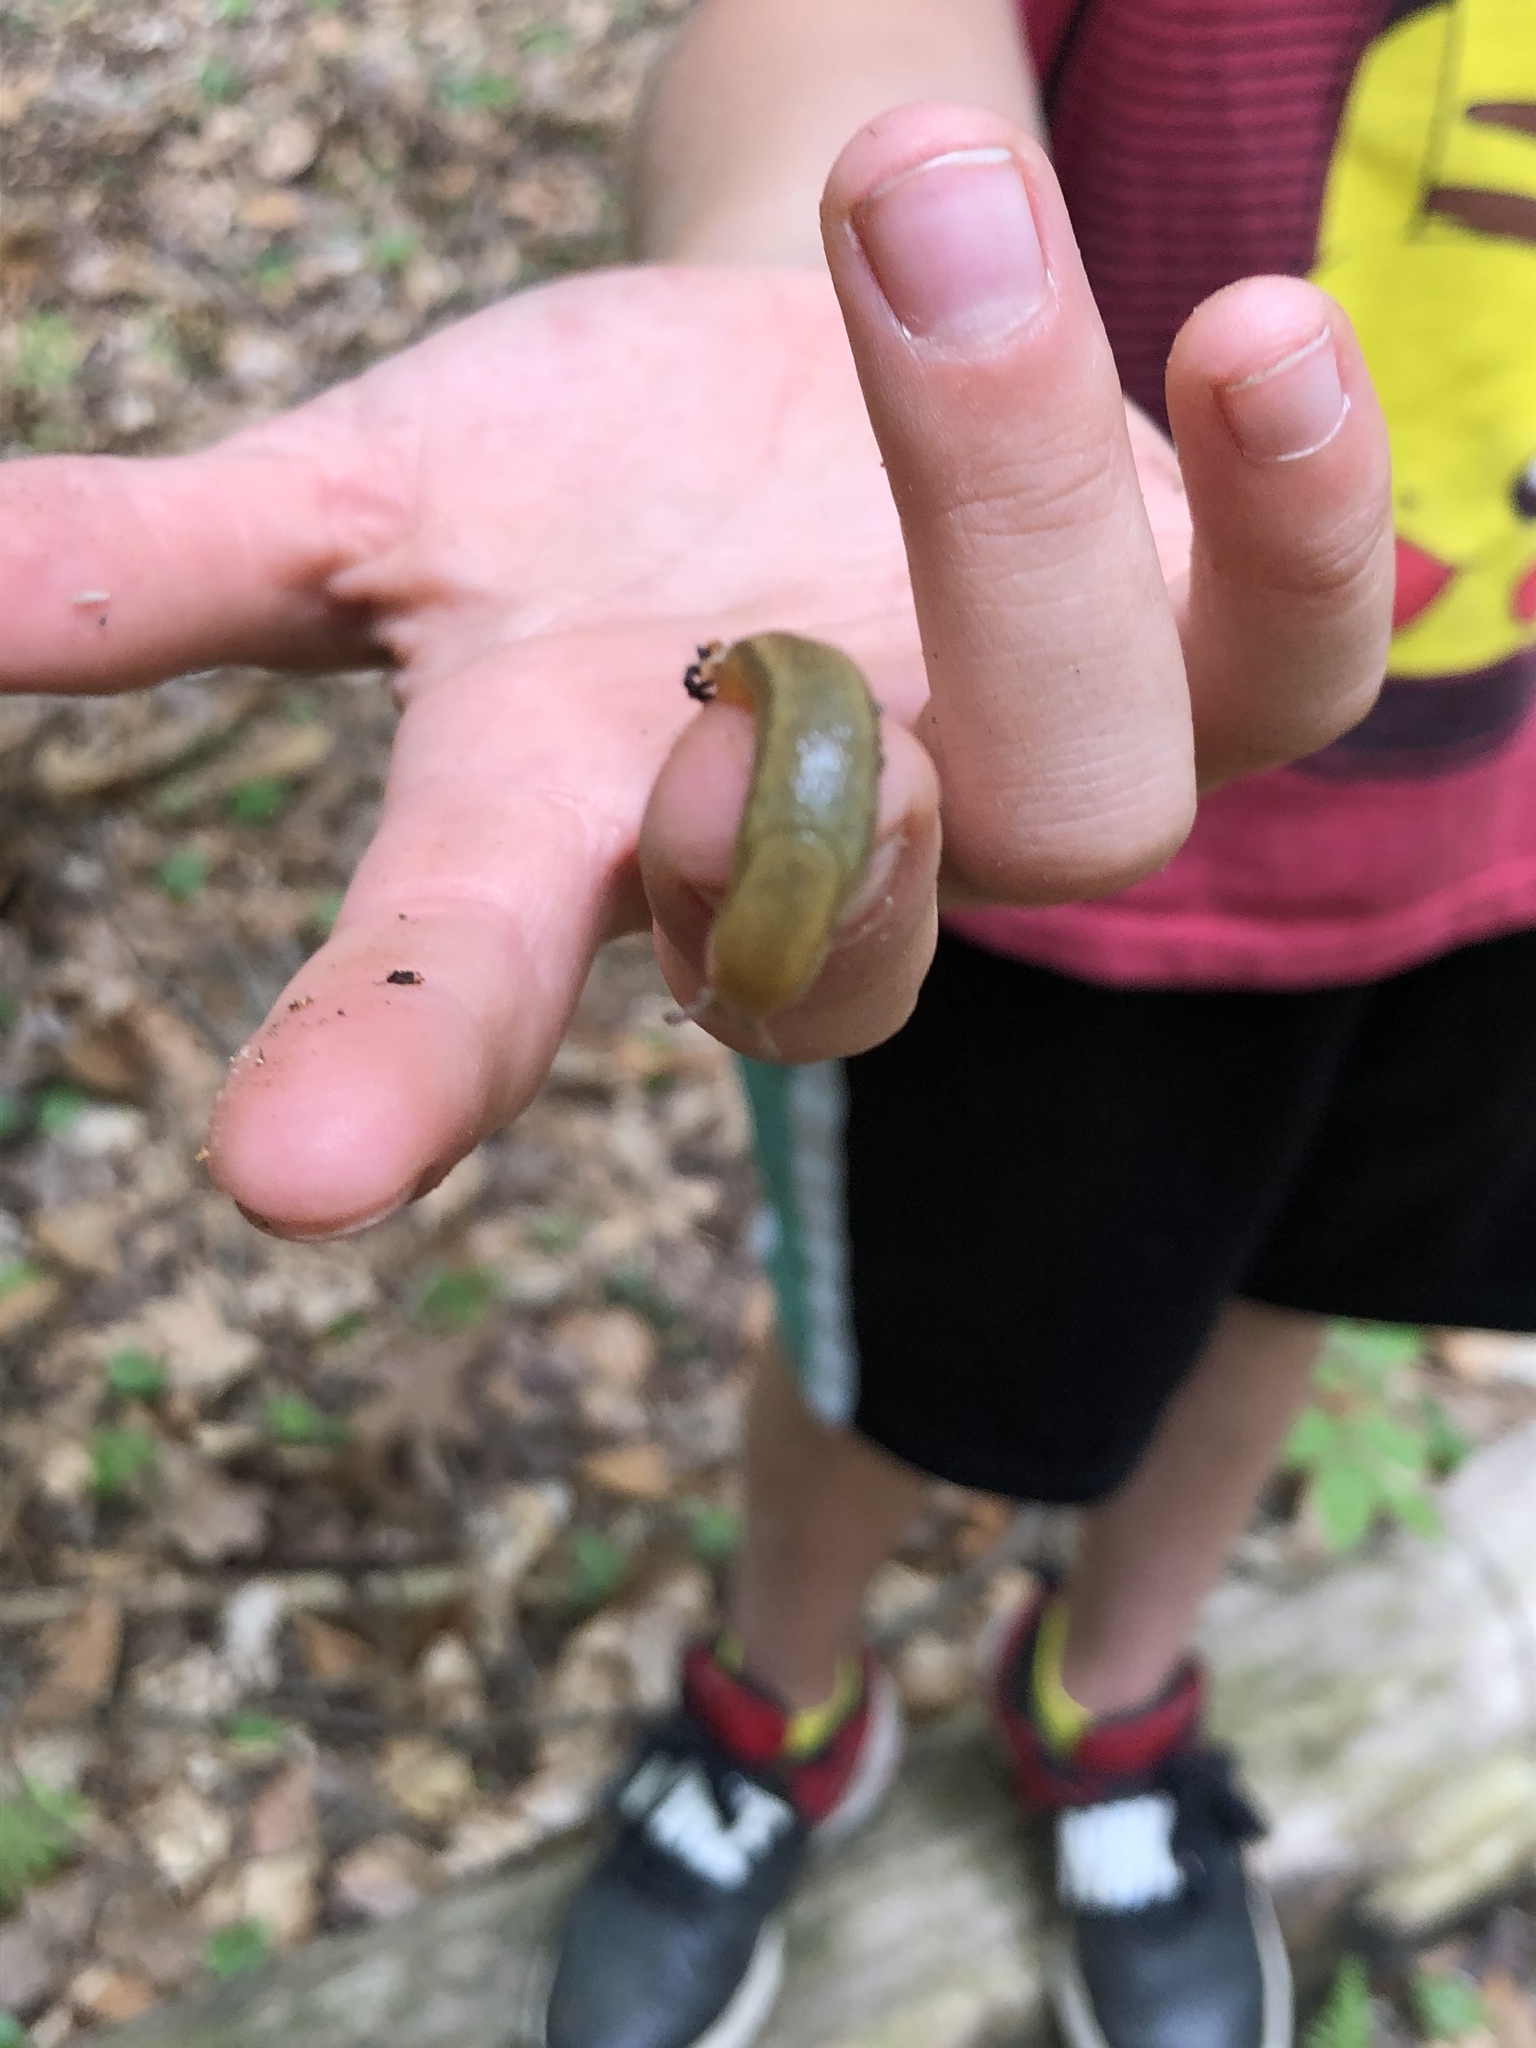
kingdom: Animalia
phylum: Mollusca
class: Gastropoda
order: Stylommatophora
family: Arionidae
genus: Arion
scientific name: Arion subfuscus
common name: Dusky arion
